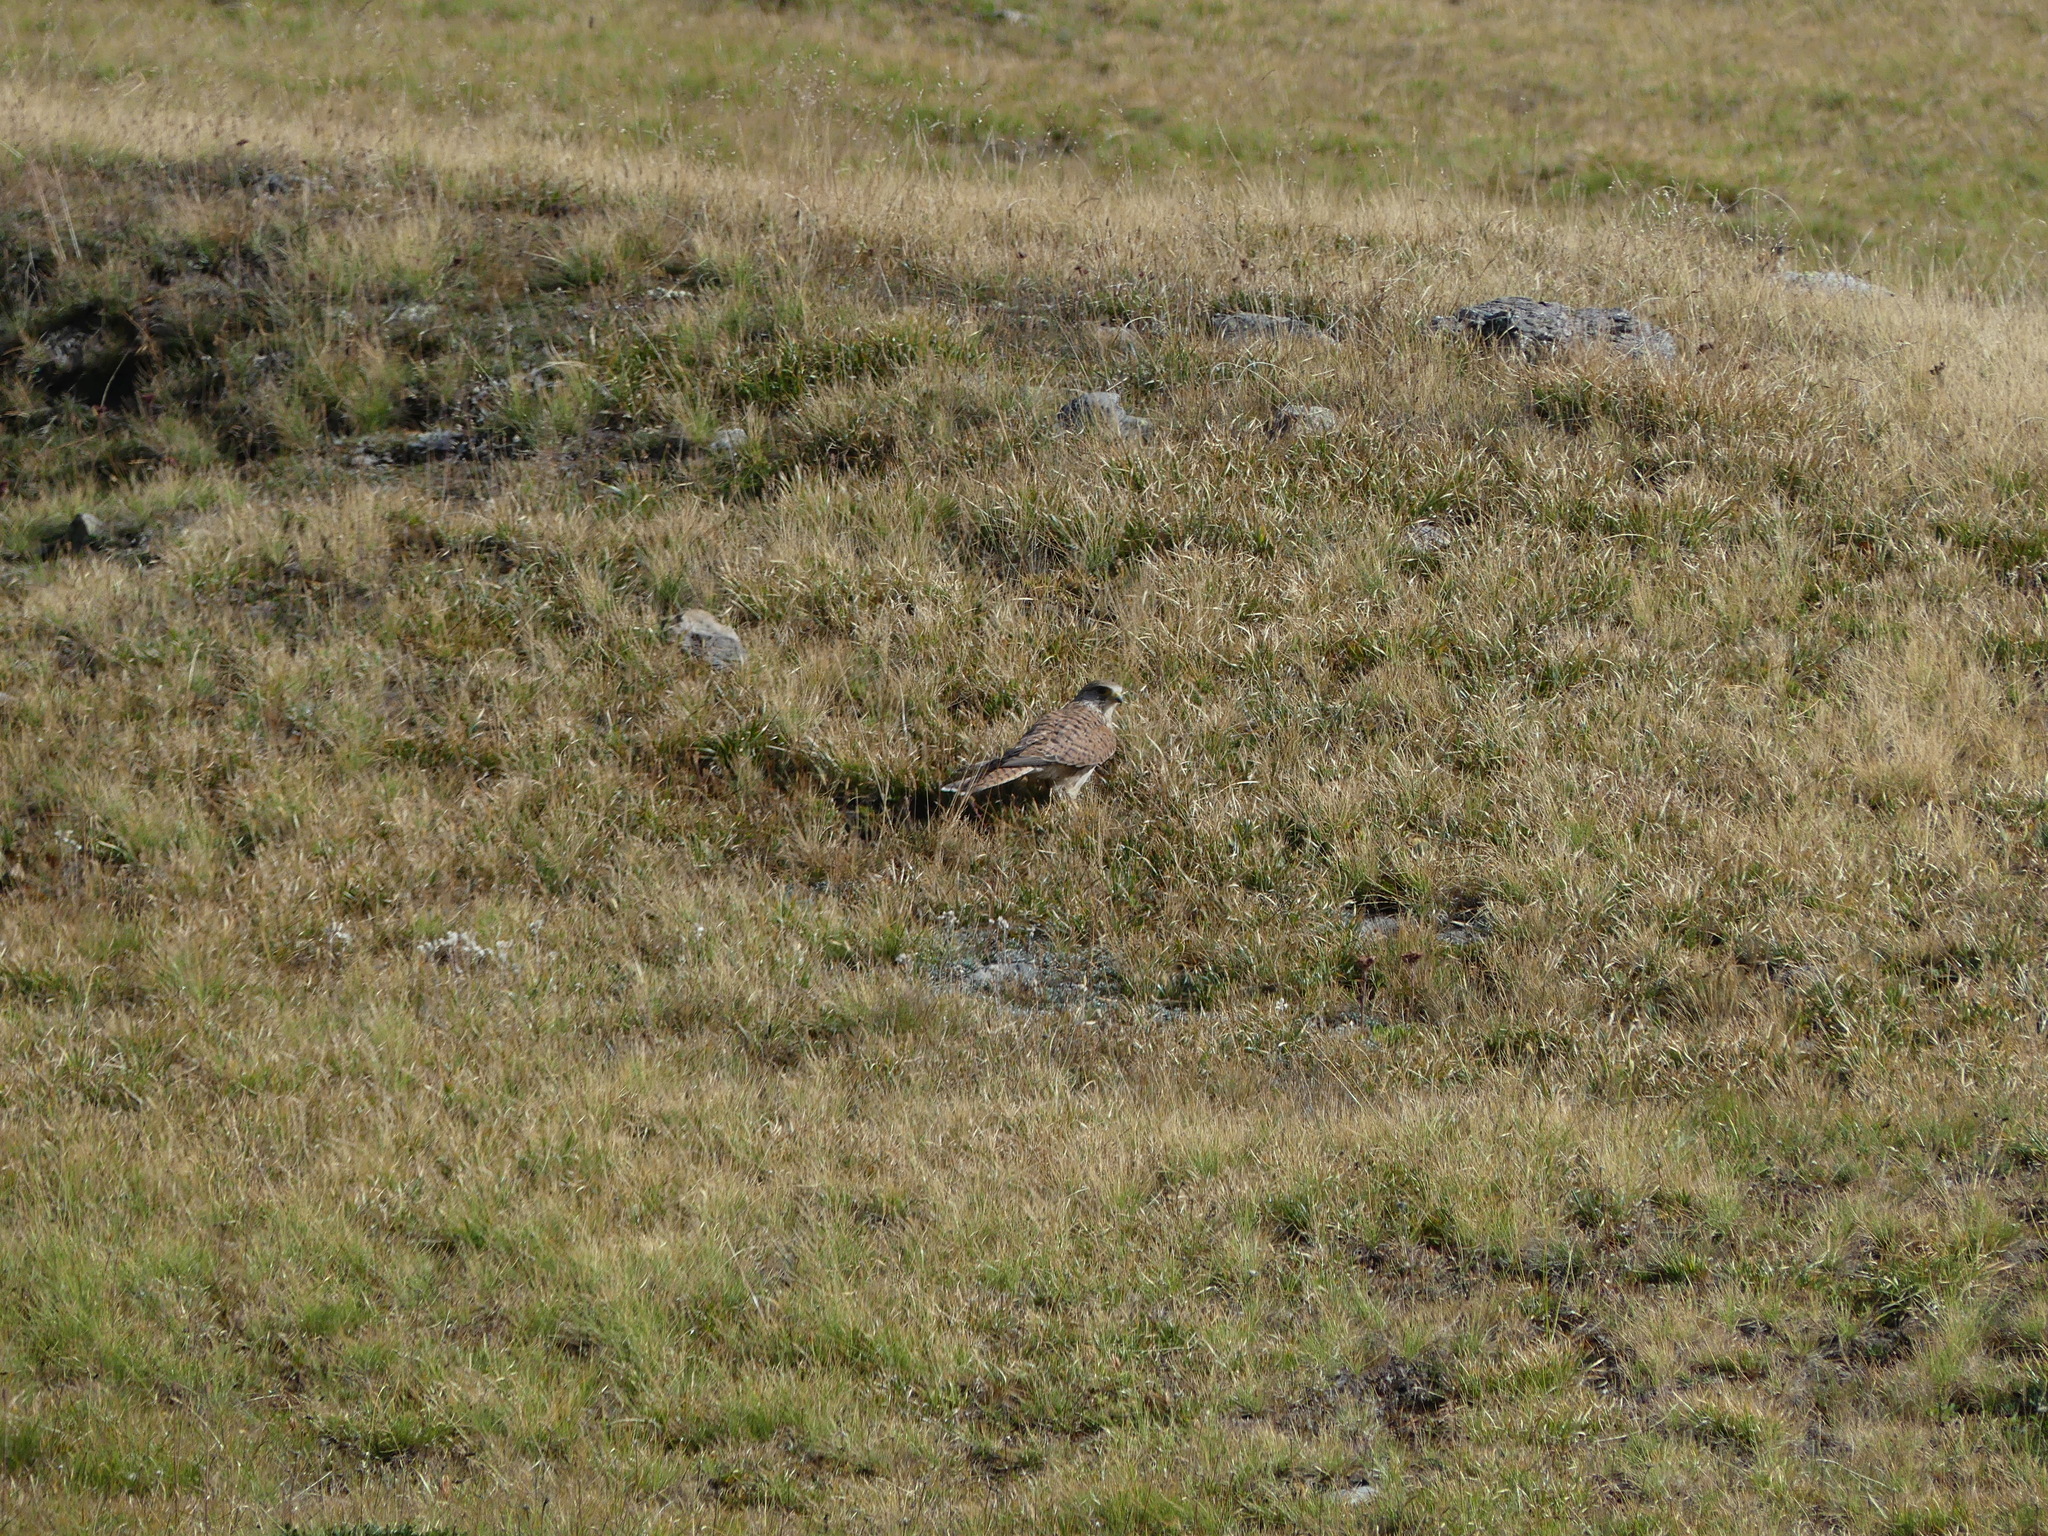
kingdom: Animalia
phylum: Chordata
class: Aves
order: Falconiformes
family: Falconidae
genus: Falco
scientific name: Falco tinnunculus
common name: Common kestrel
